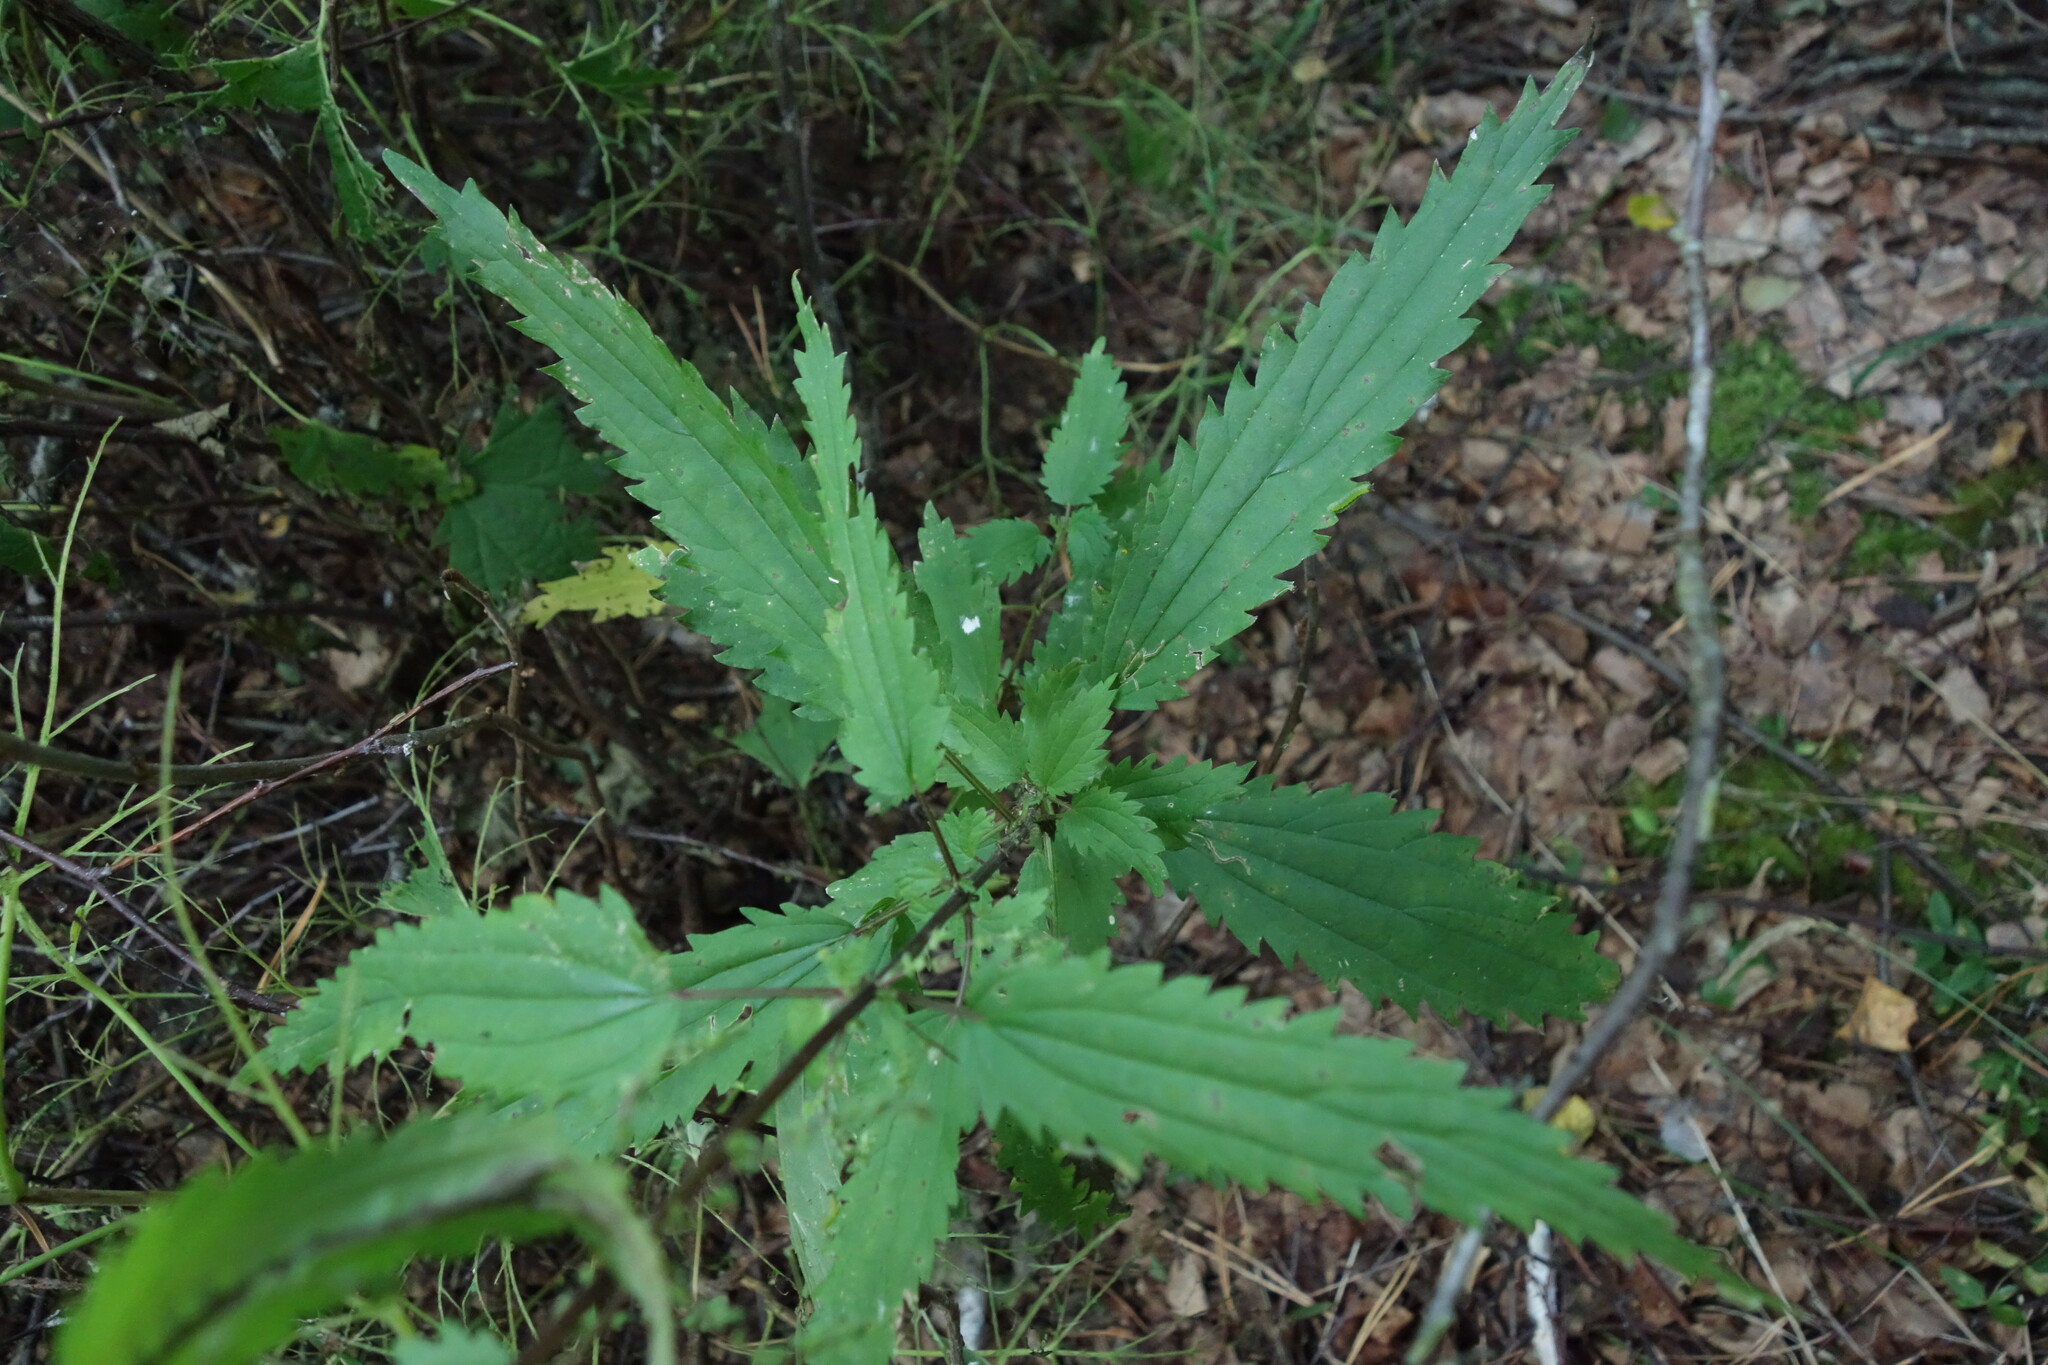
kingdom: Plantae
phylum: Tracheophyta
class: Magnoliopsida
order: Rosales
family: Urticaceae
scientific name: Urticaceae
